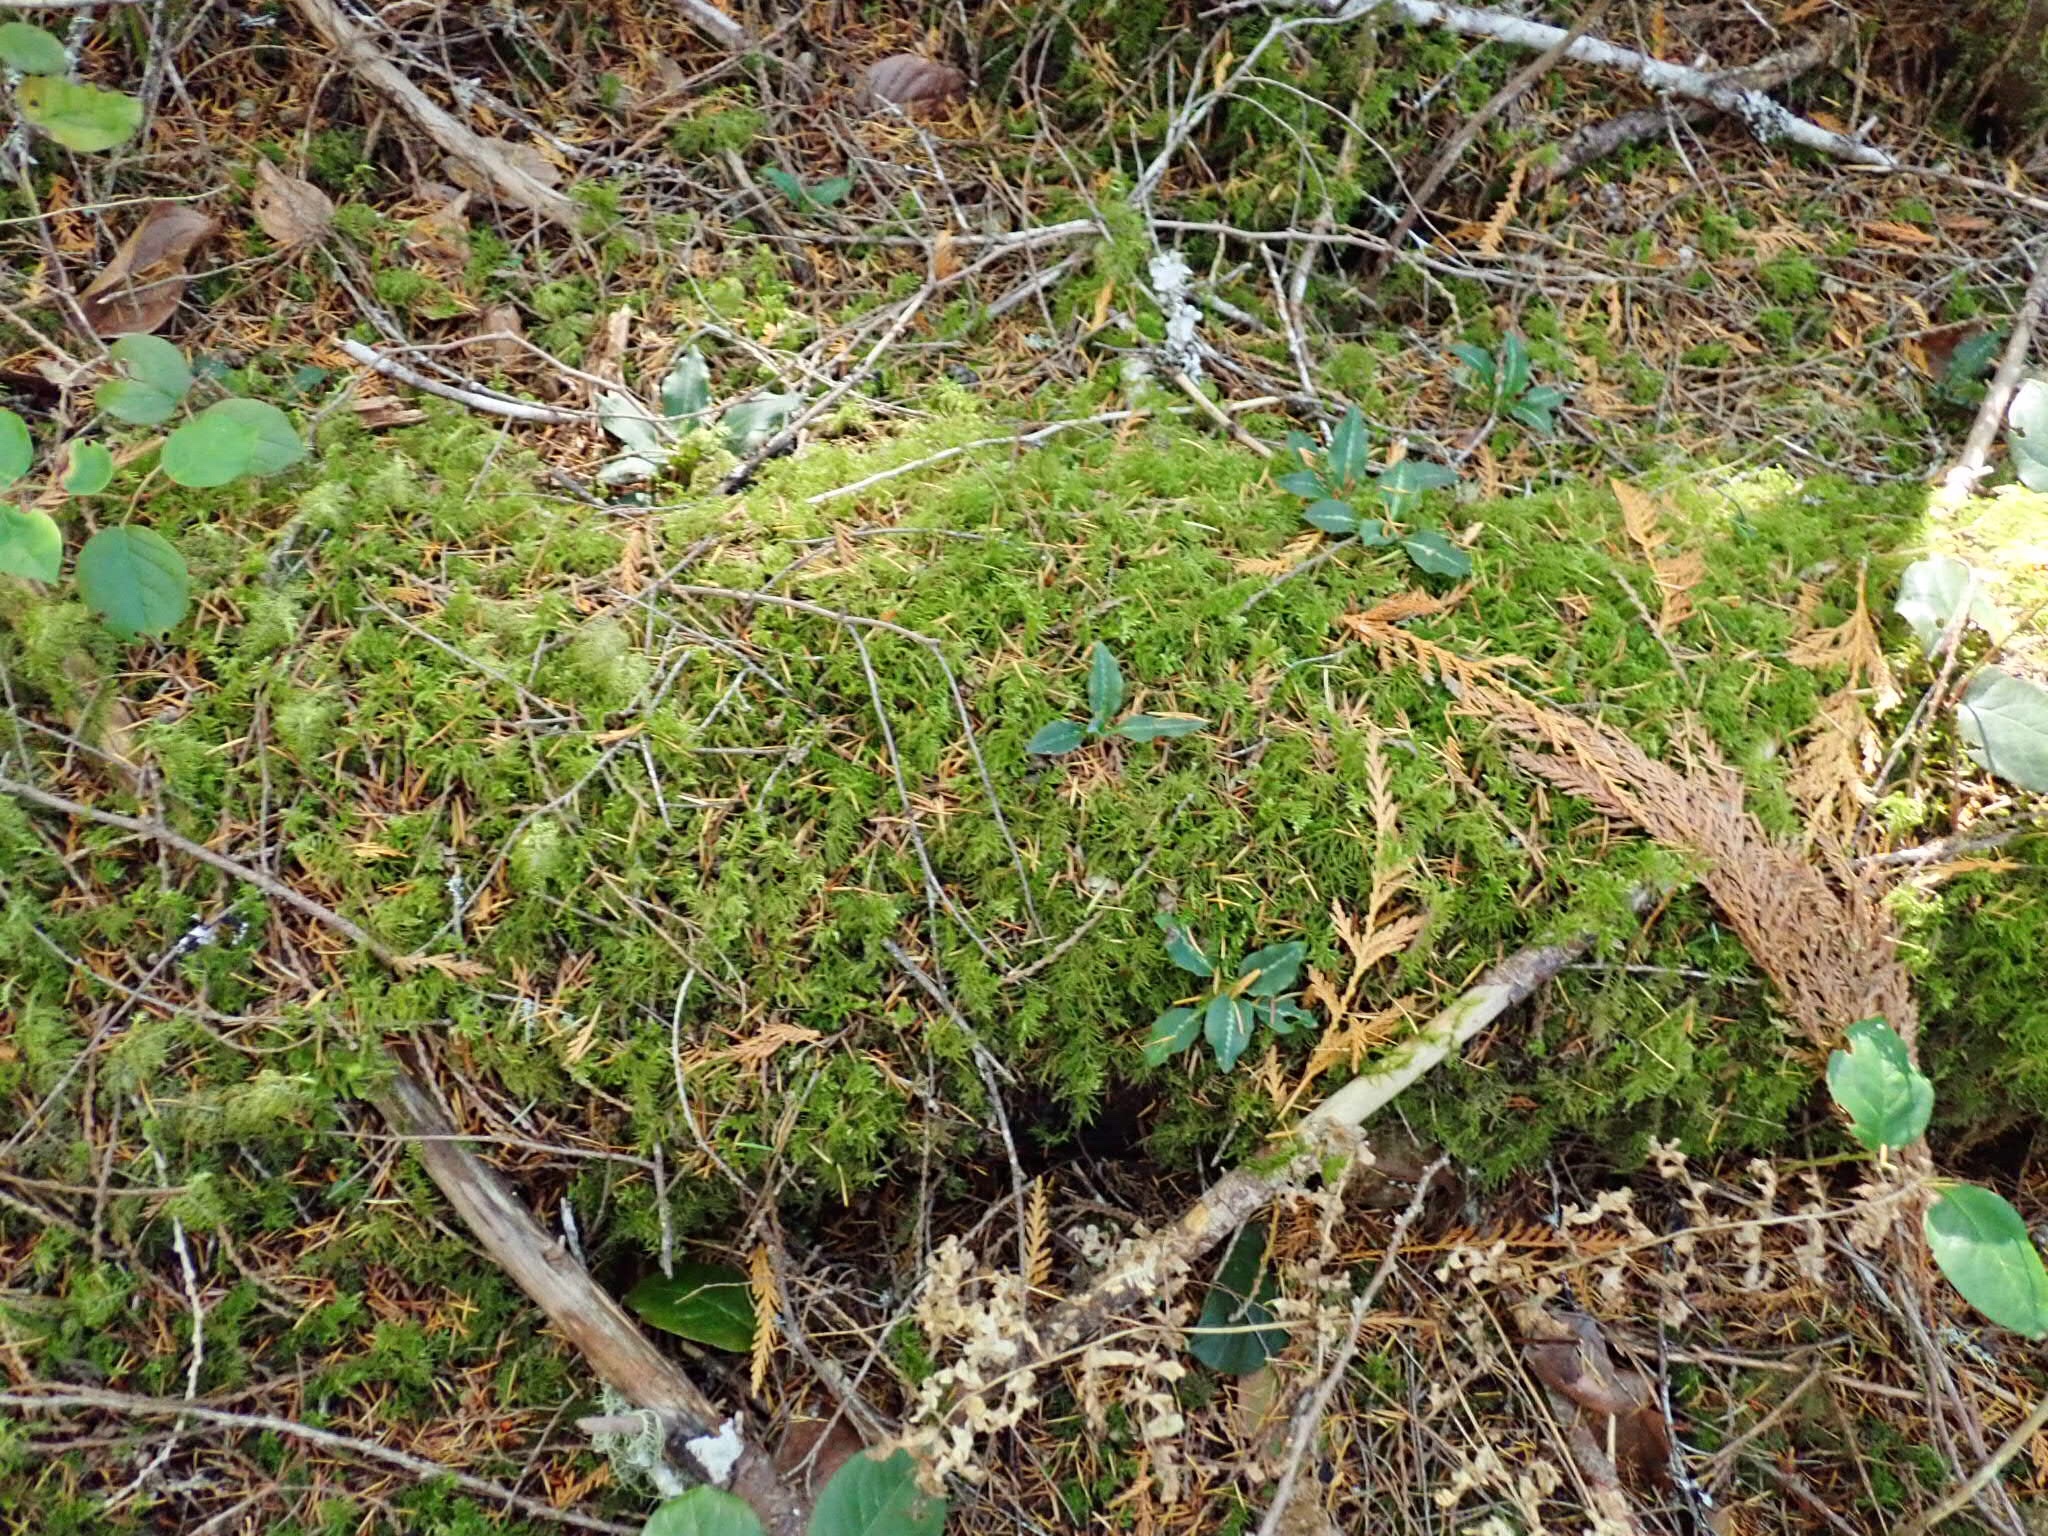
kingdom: Plantae
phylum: Tracheophyta
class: Liliopsida
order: Asparagales
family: Orchidaceae
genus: Goodyera
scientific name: Goodyera oblongifolia
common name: Giant rattlesnake-plantain
